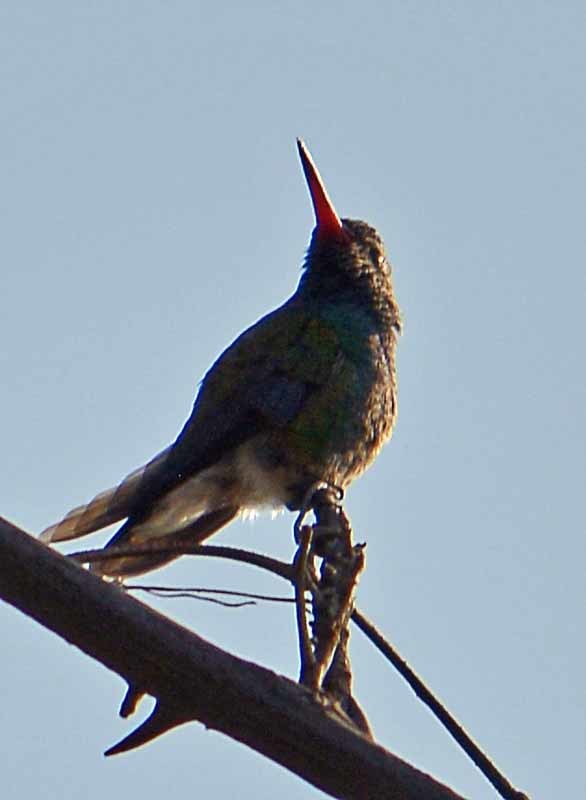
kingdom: Animalia
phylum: Chordata
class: Aves
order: Apodiformes
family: Trochilidae
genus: Cynanthus
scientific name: Cynanthus latirostris
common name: Broad-billed hummingbird
